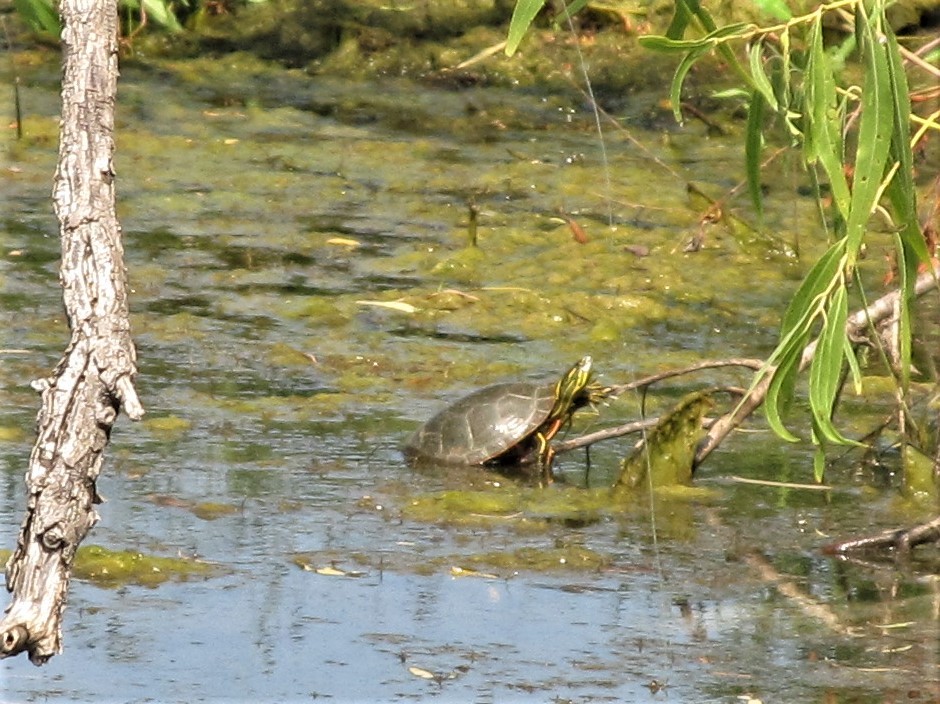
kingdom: Animalia
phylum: Chordata
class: Testudines
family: Emydidae
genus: Chrysemys
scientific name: Chrysemys picta
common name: Painted turtle
